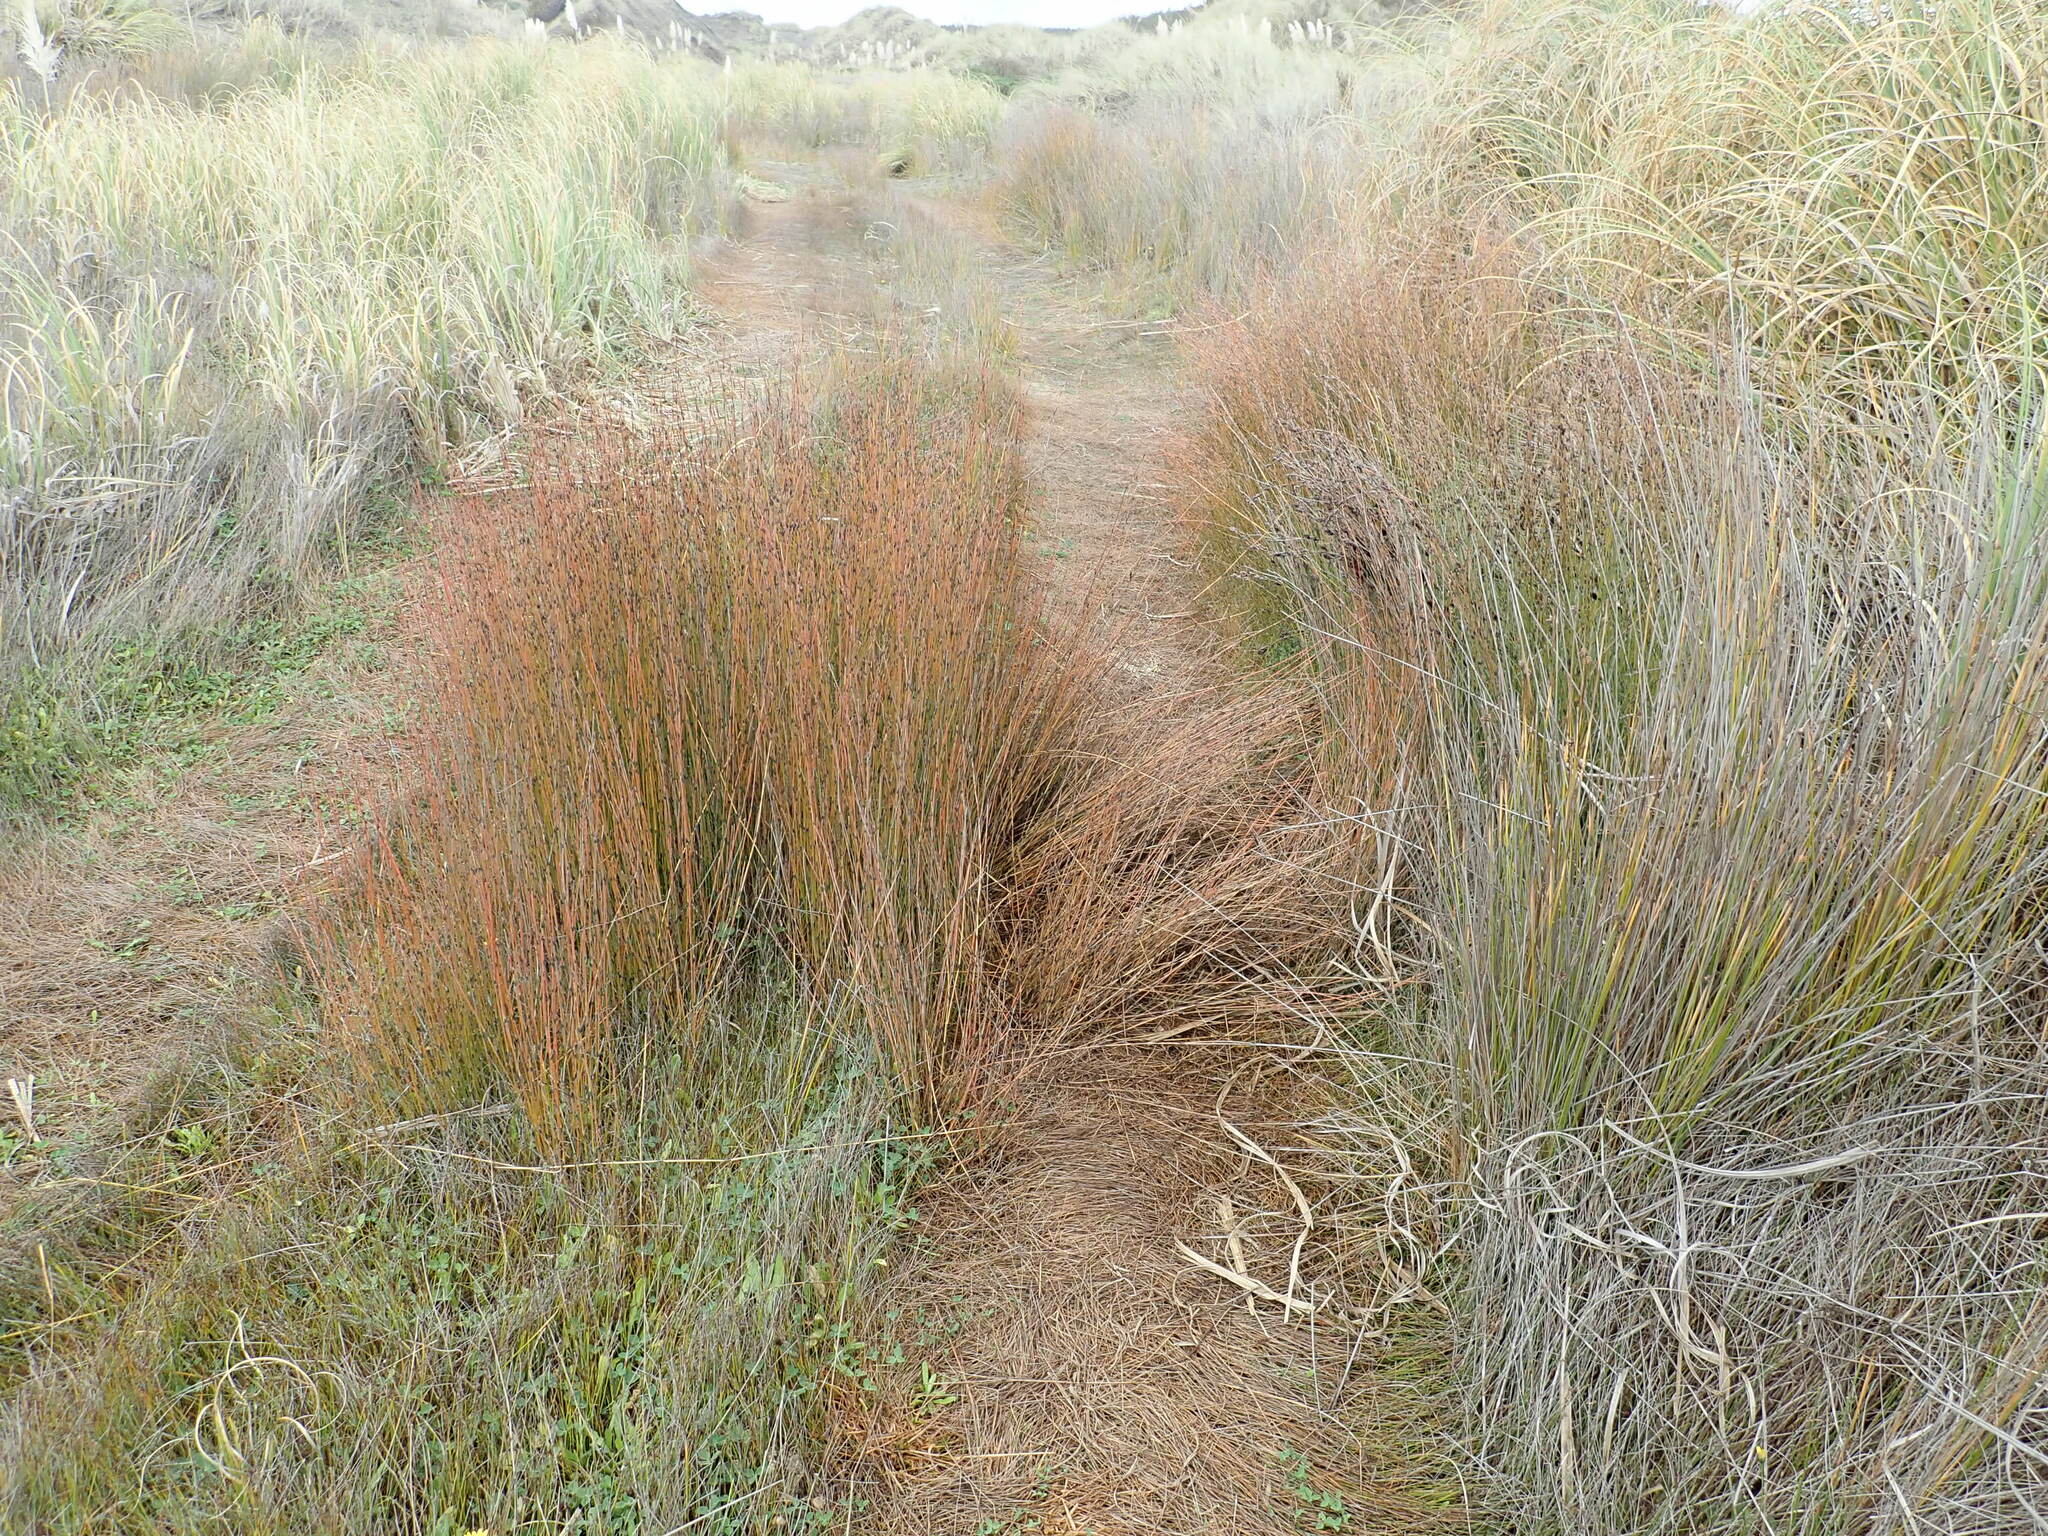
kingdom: Plantae
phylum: Tracheophyta
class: Liliopsida
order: Poales
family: Restionaceae
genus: Apodasmia
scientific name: Apodasmia similis
